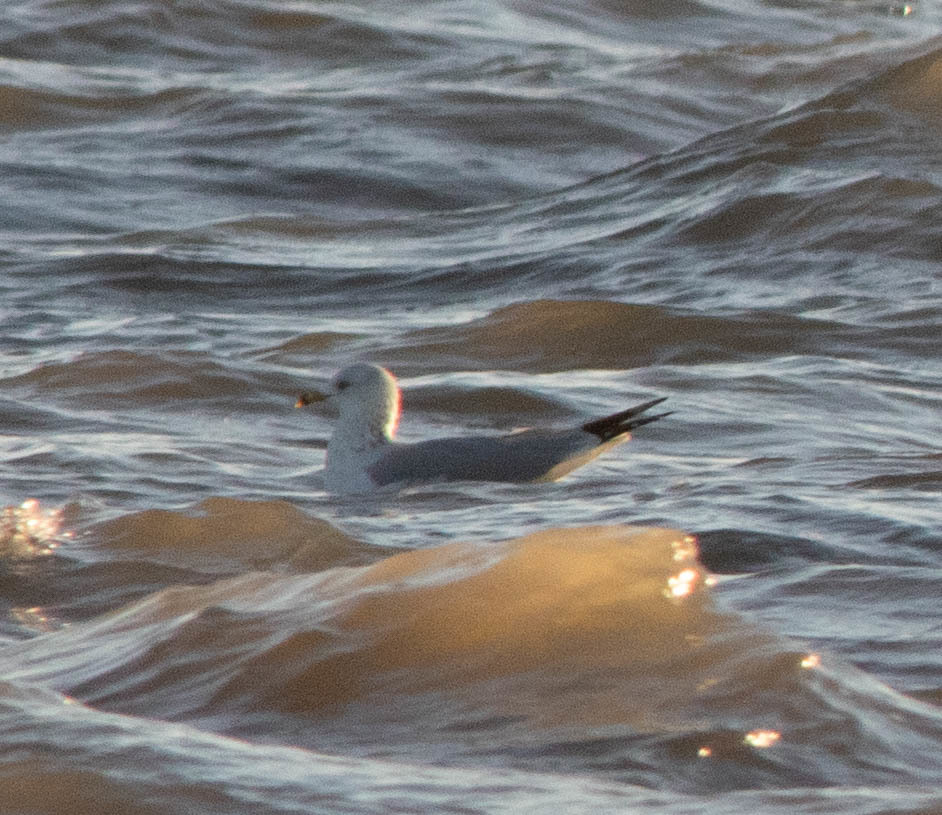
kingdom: Animalia
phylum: Chordata
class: Aves
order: Charadriiformes
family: Laridae
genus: Larus
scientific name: Larus delawarensis
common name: Ring-billed gull
